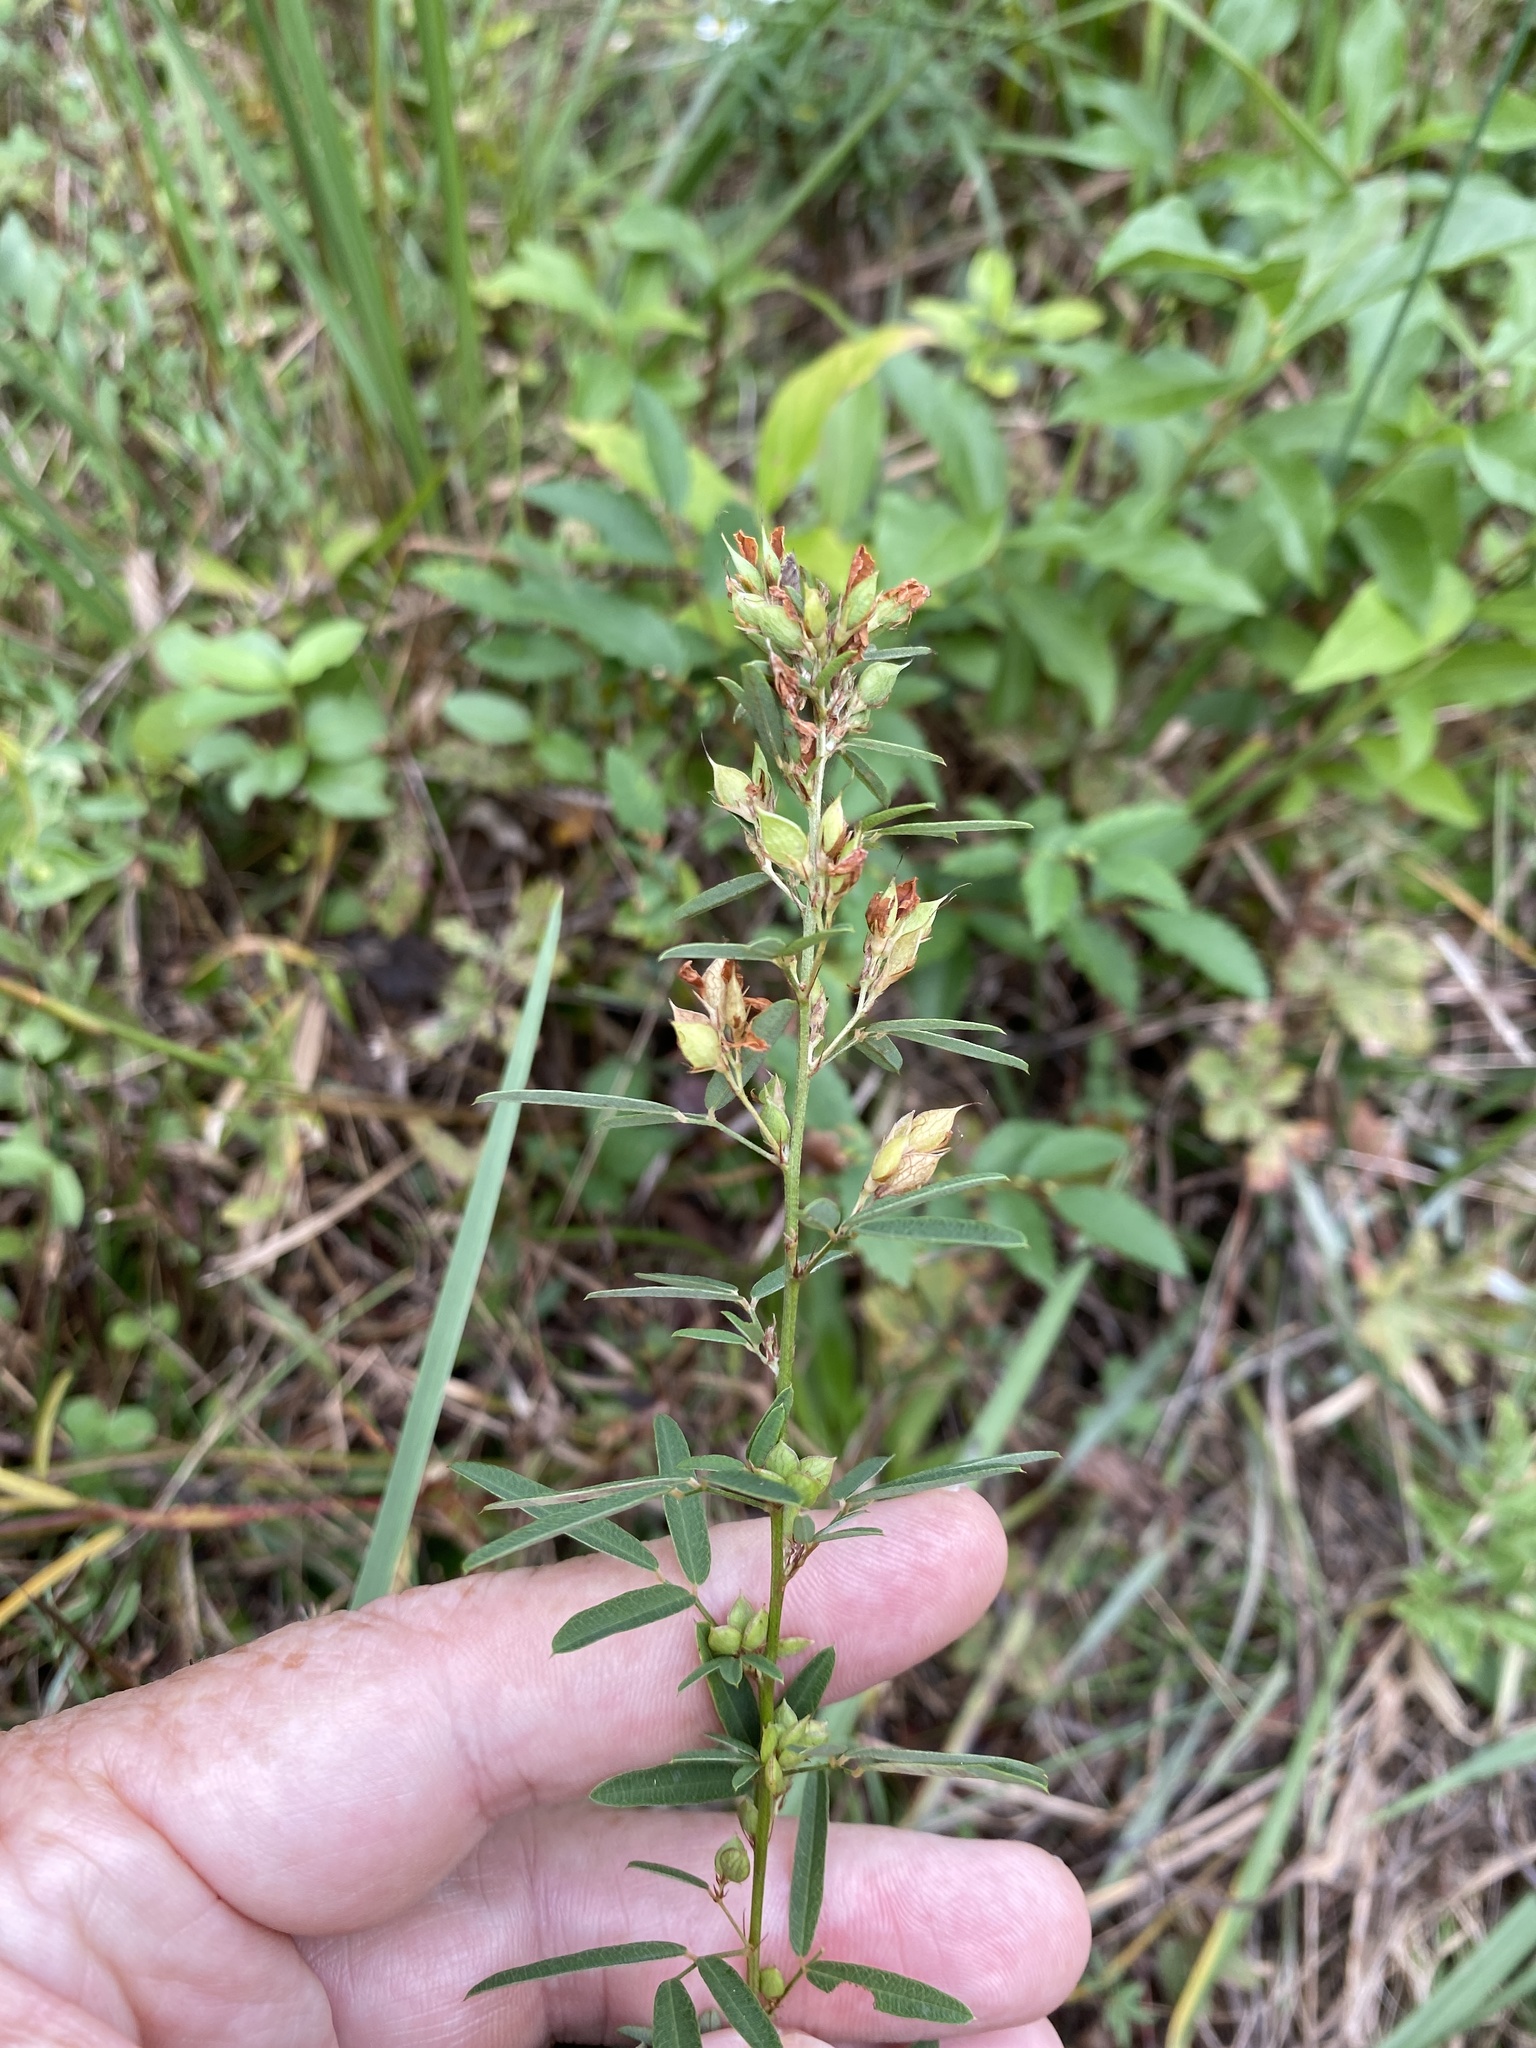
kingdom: Plantae
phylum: Tracheophyta
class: Magnoliopsida
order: Fabales
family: Fabaceae
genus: Lespedeza
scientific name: Lespedeza virginica
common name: Slender bush-clover
